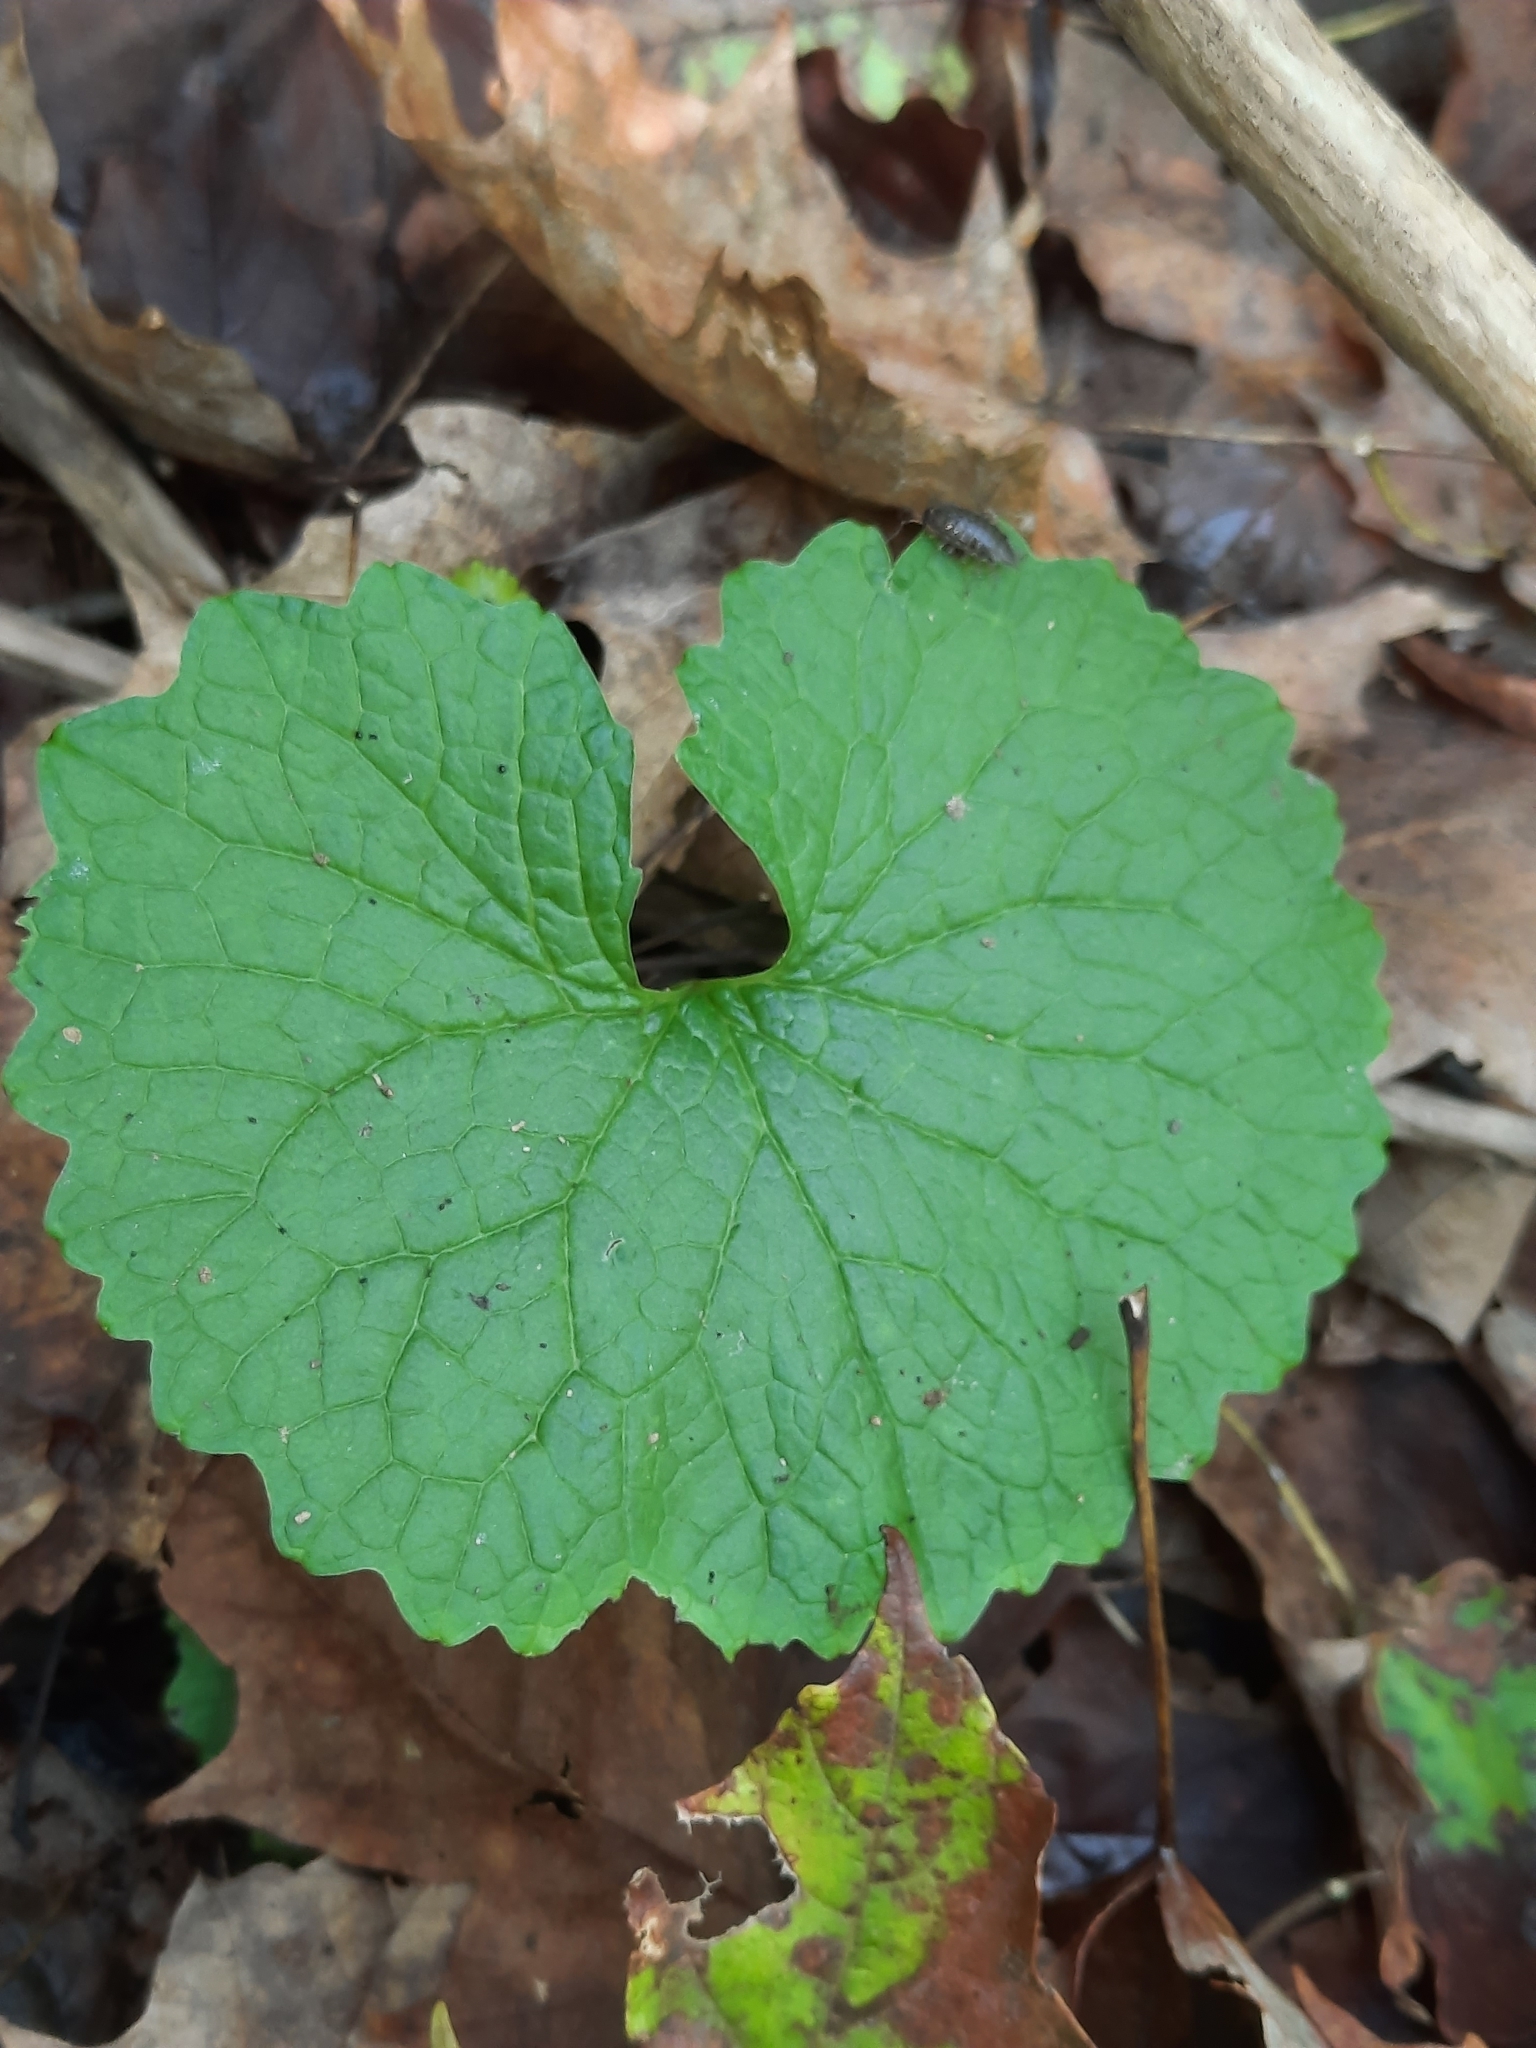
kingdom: Plantae
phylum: Tracheophyta
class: Magnoliopsida
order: Brassicales
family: Brassicaceae
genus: Alliaria
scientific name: Alliaria petiolata
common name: Garlic mustard
